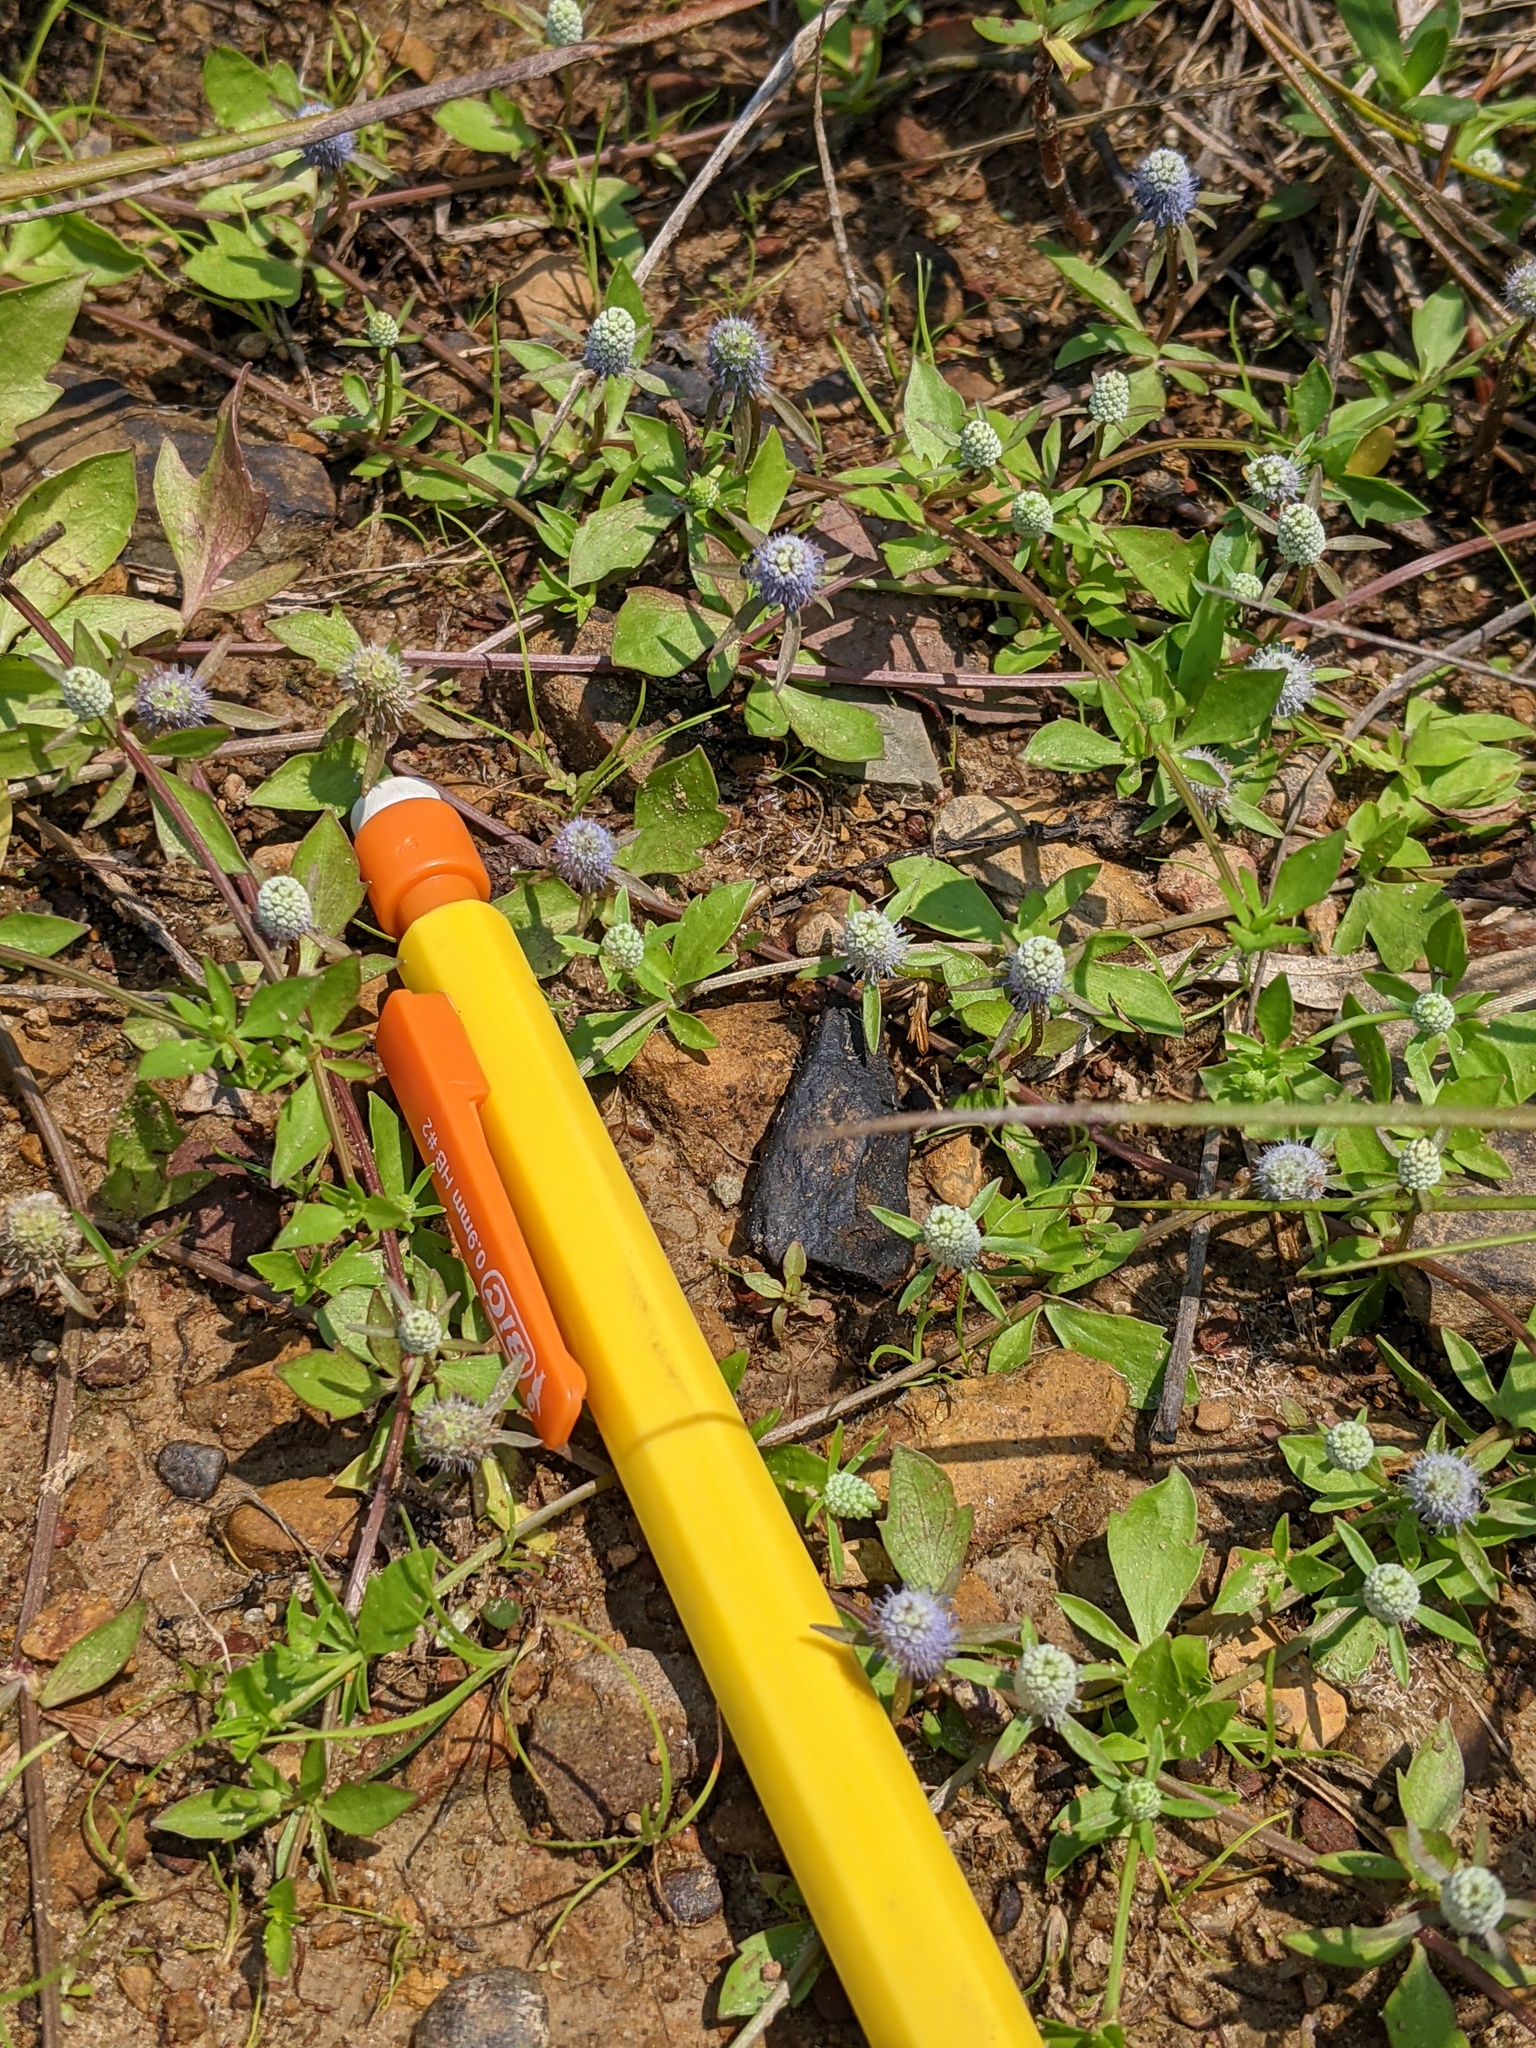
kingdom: Plantae
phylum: Tracheophyta
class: Magnoliopsida
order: Apiales
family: Apiaceae
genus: Eryngium
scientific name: Eryngium prostratum
